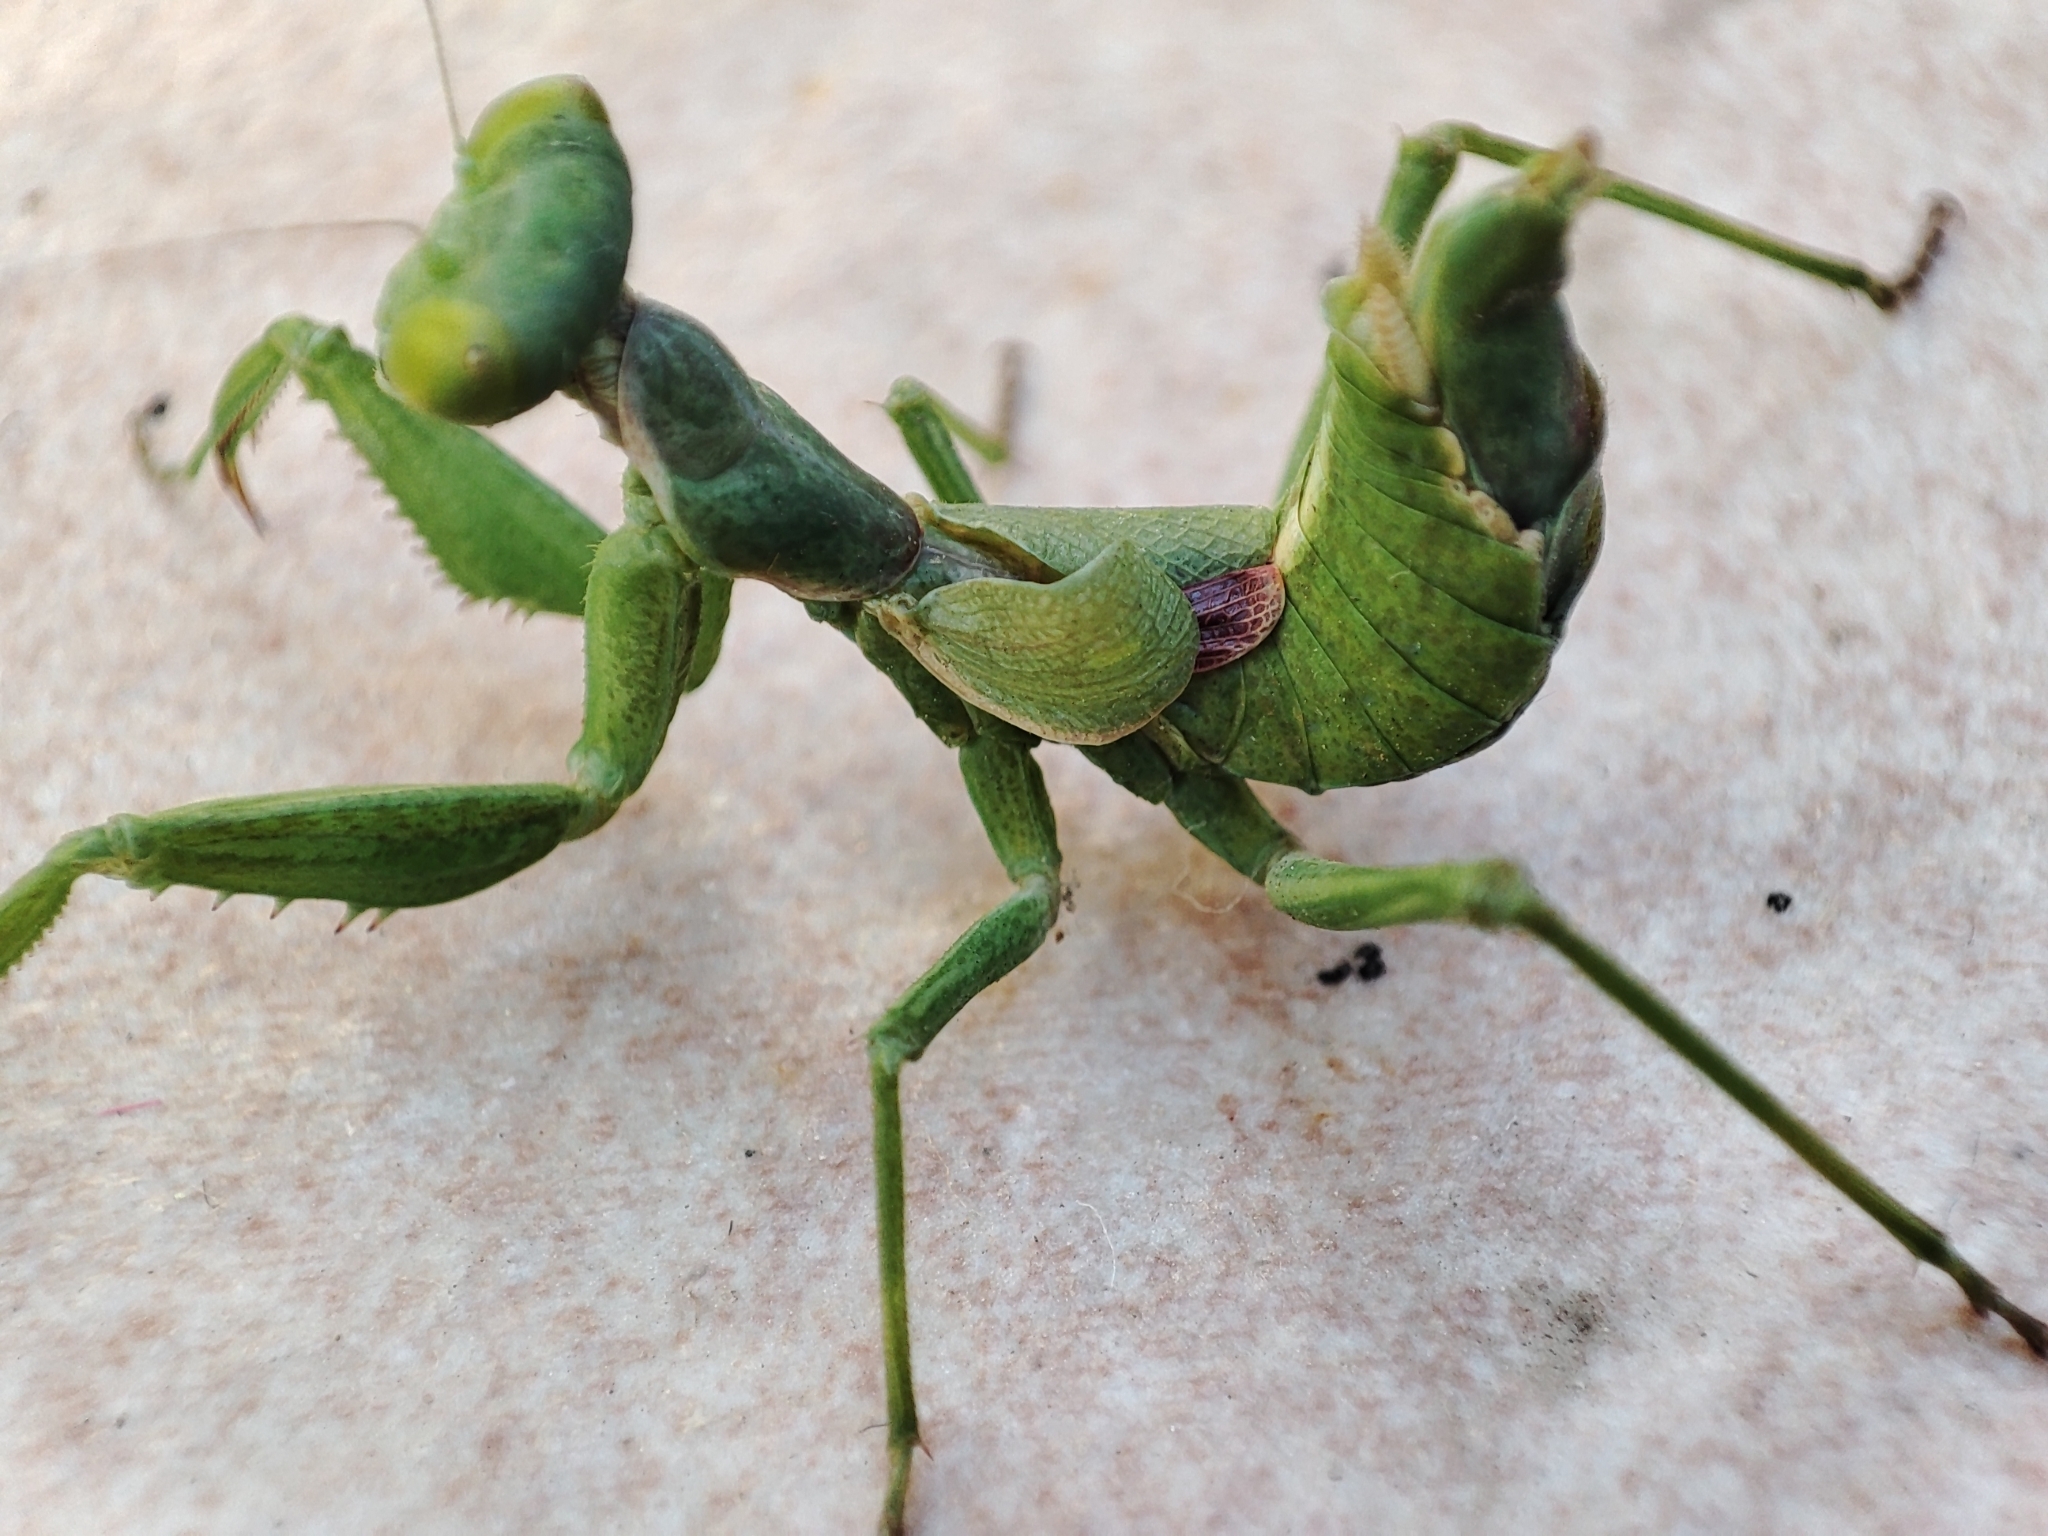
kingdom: Animalia
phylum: Arthropoda
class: Insecta
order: Mantodea
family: Amelidae
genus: Ameles
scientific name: Ameles spallanzania
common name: European dwarf mantis
